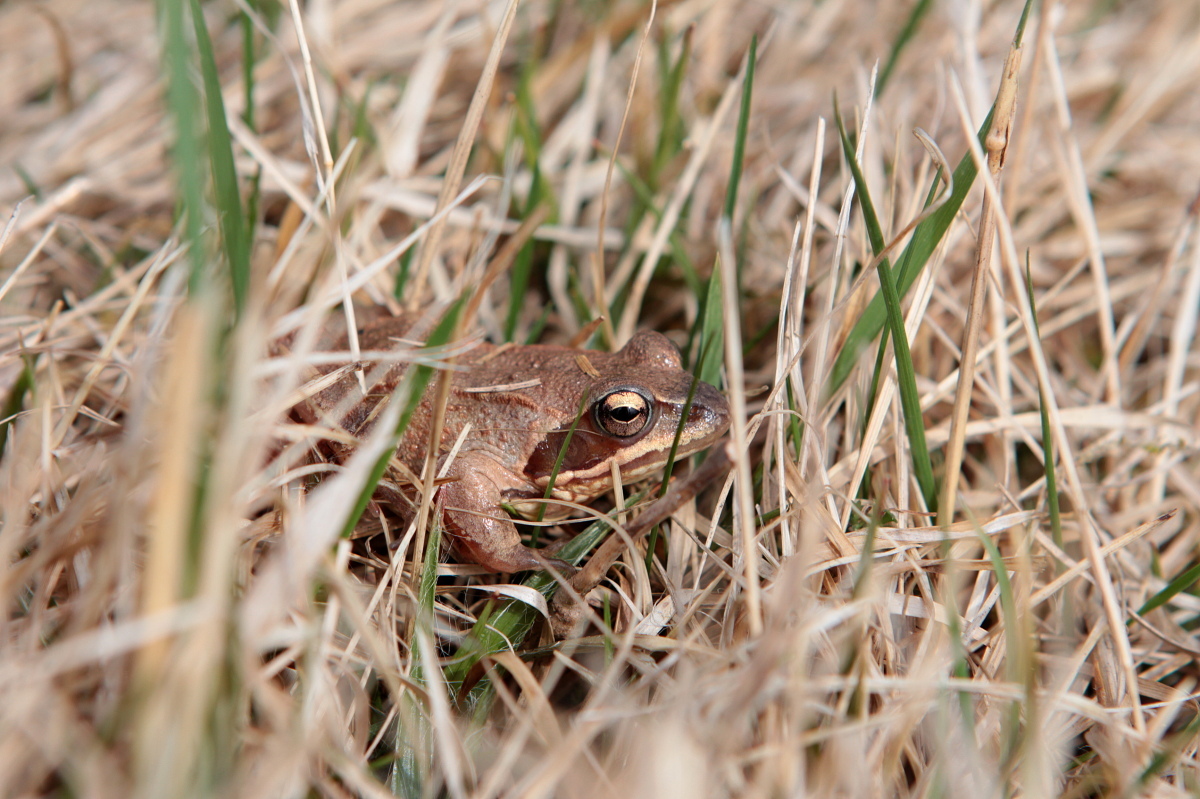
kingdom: Animalia
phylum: Chordata
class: Amphibia
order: Anura
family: Ranidae
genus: Rana
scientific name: Rana arvalis
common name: Moor frog
